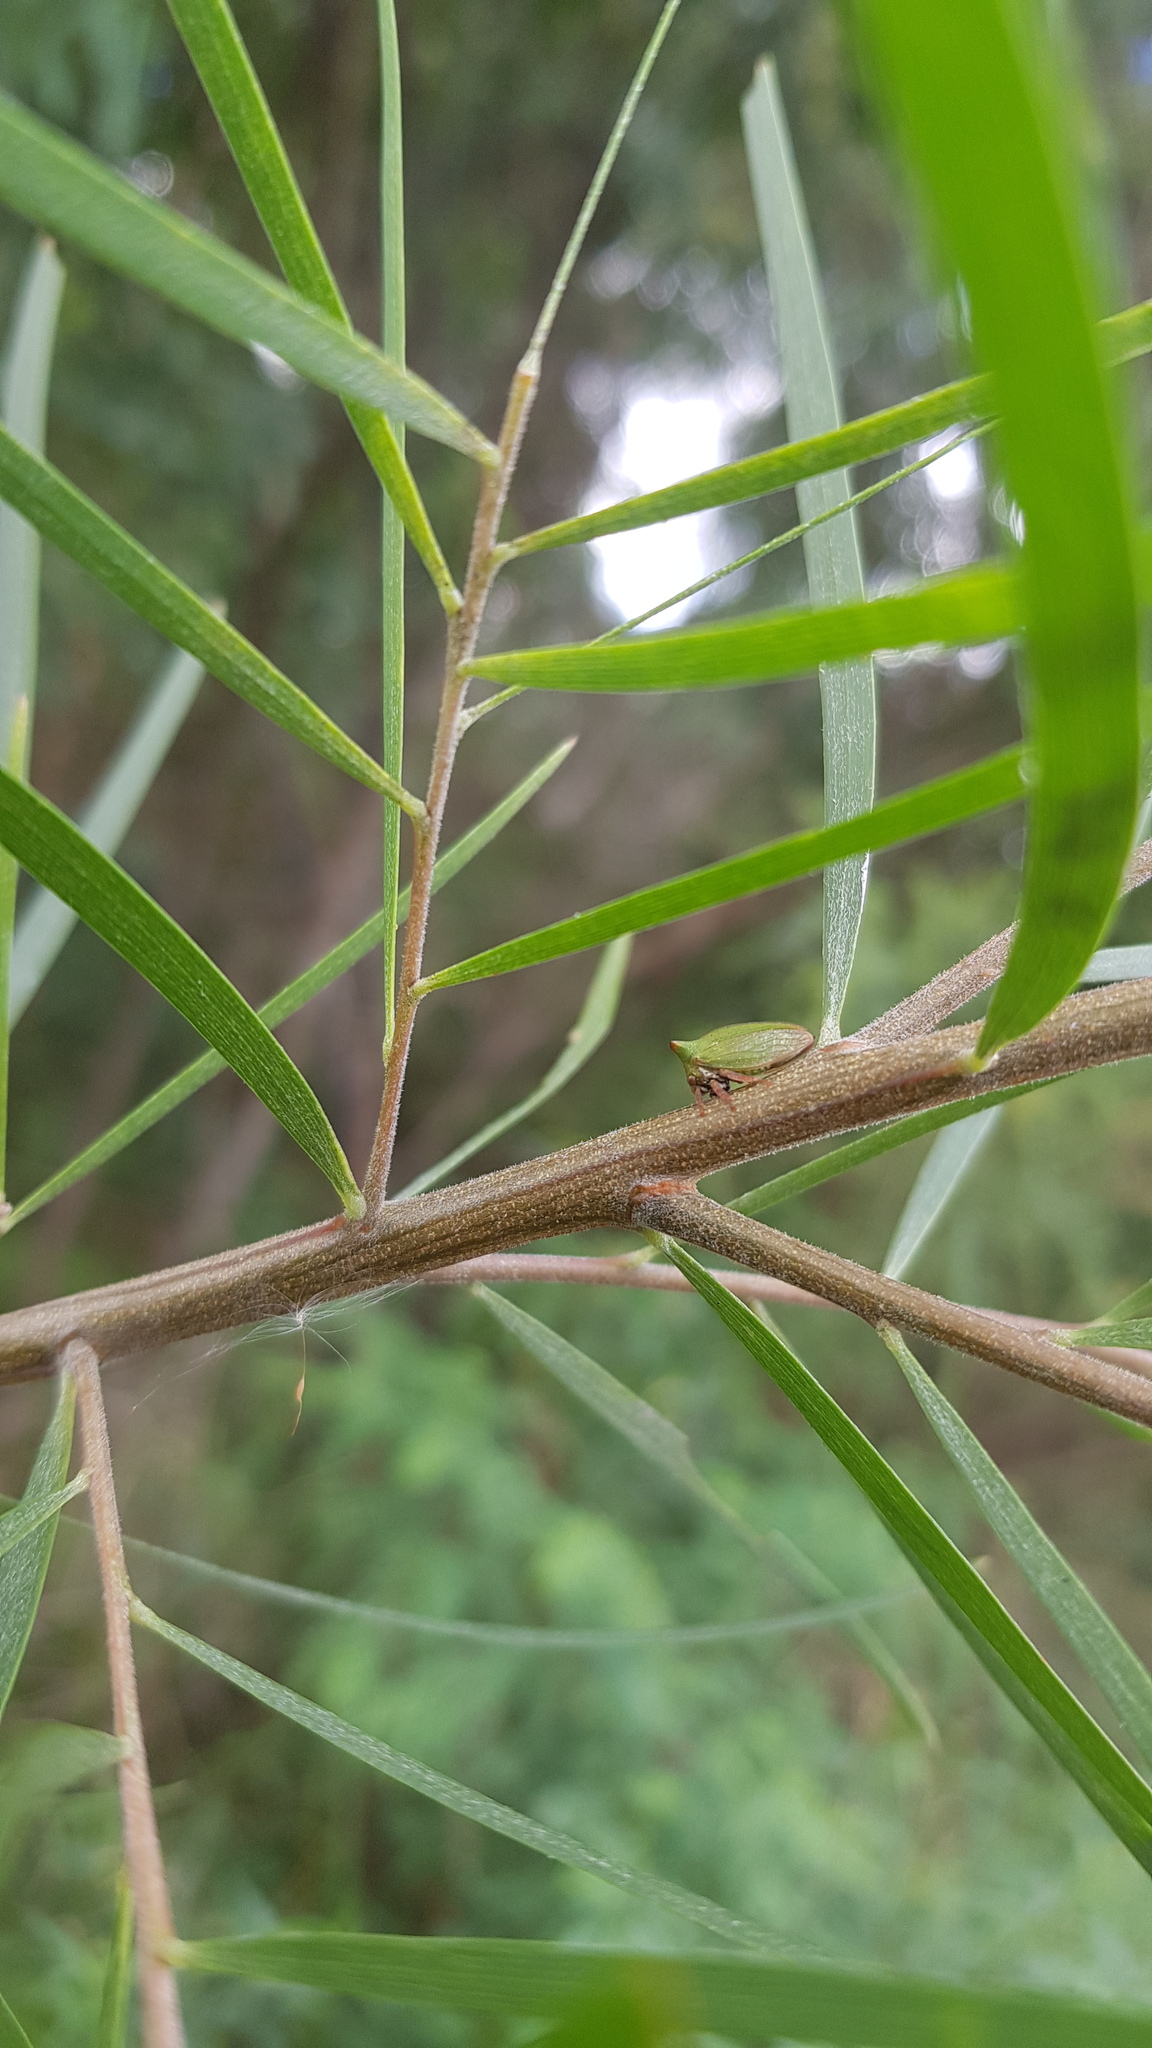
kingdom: Animalia
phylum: Arthropoda
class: Insecta
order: Hemiptera
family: Membracidae
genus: Sextius
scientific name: Sextius virescens
